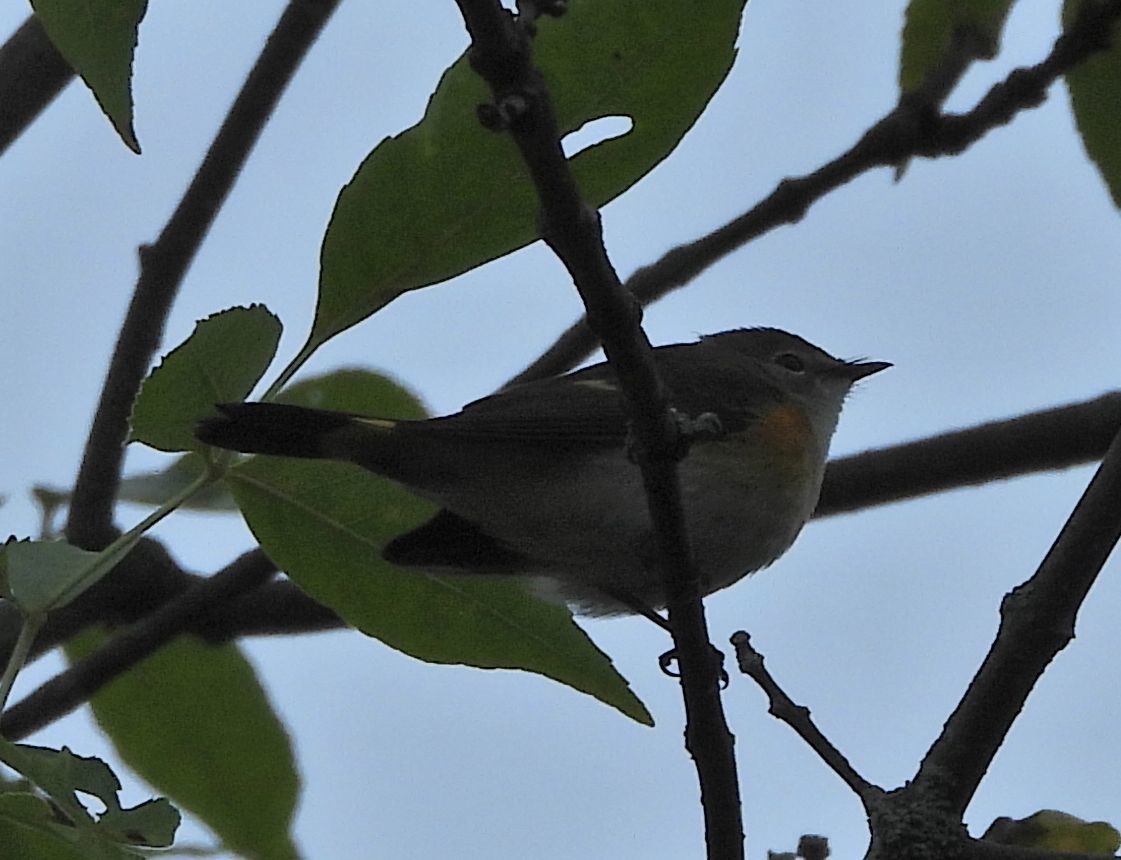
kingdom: Animalia
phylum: Chordata
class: Aves
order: Passeriformes
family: Parulidae
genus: Setophaga
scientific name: Setophaga ruticilla
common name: American redstart
